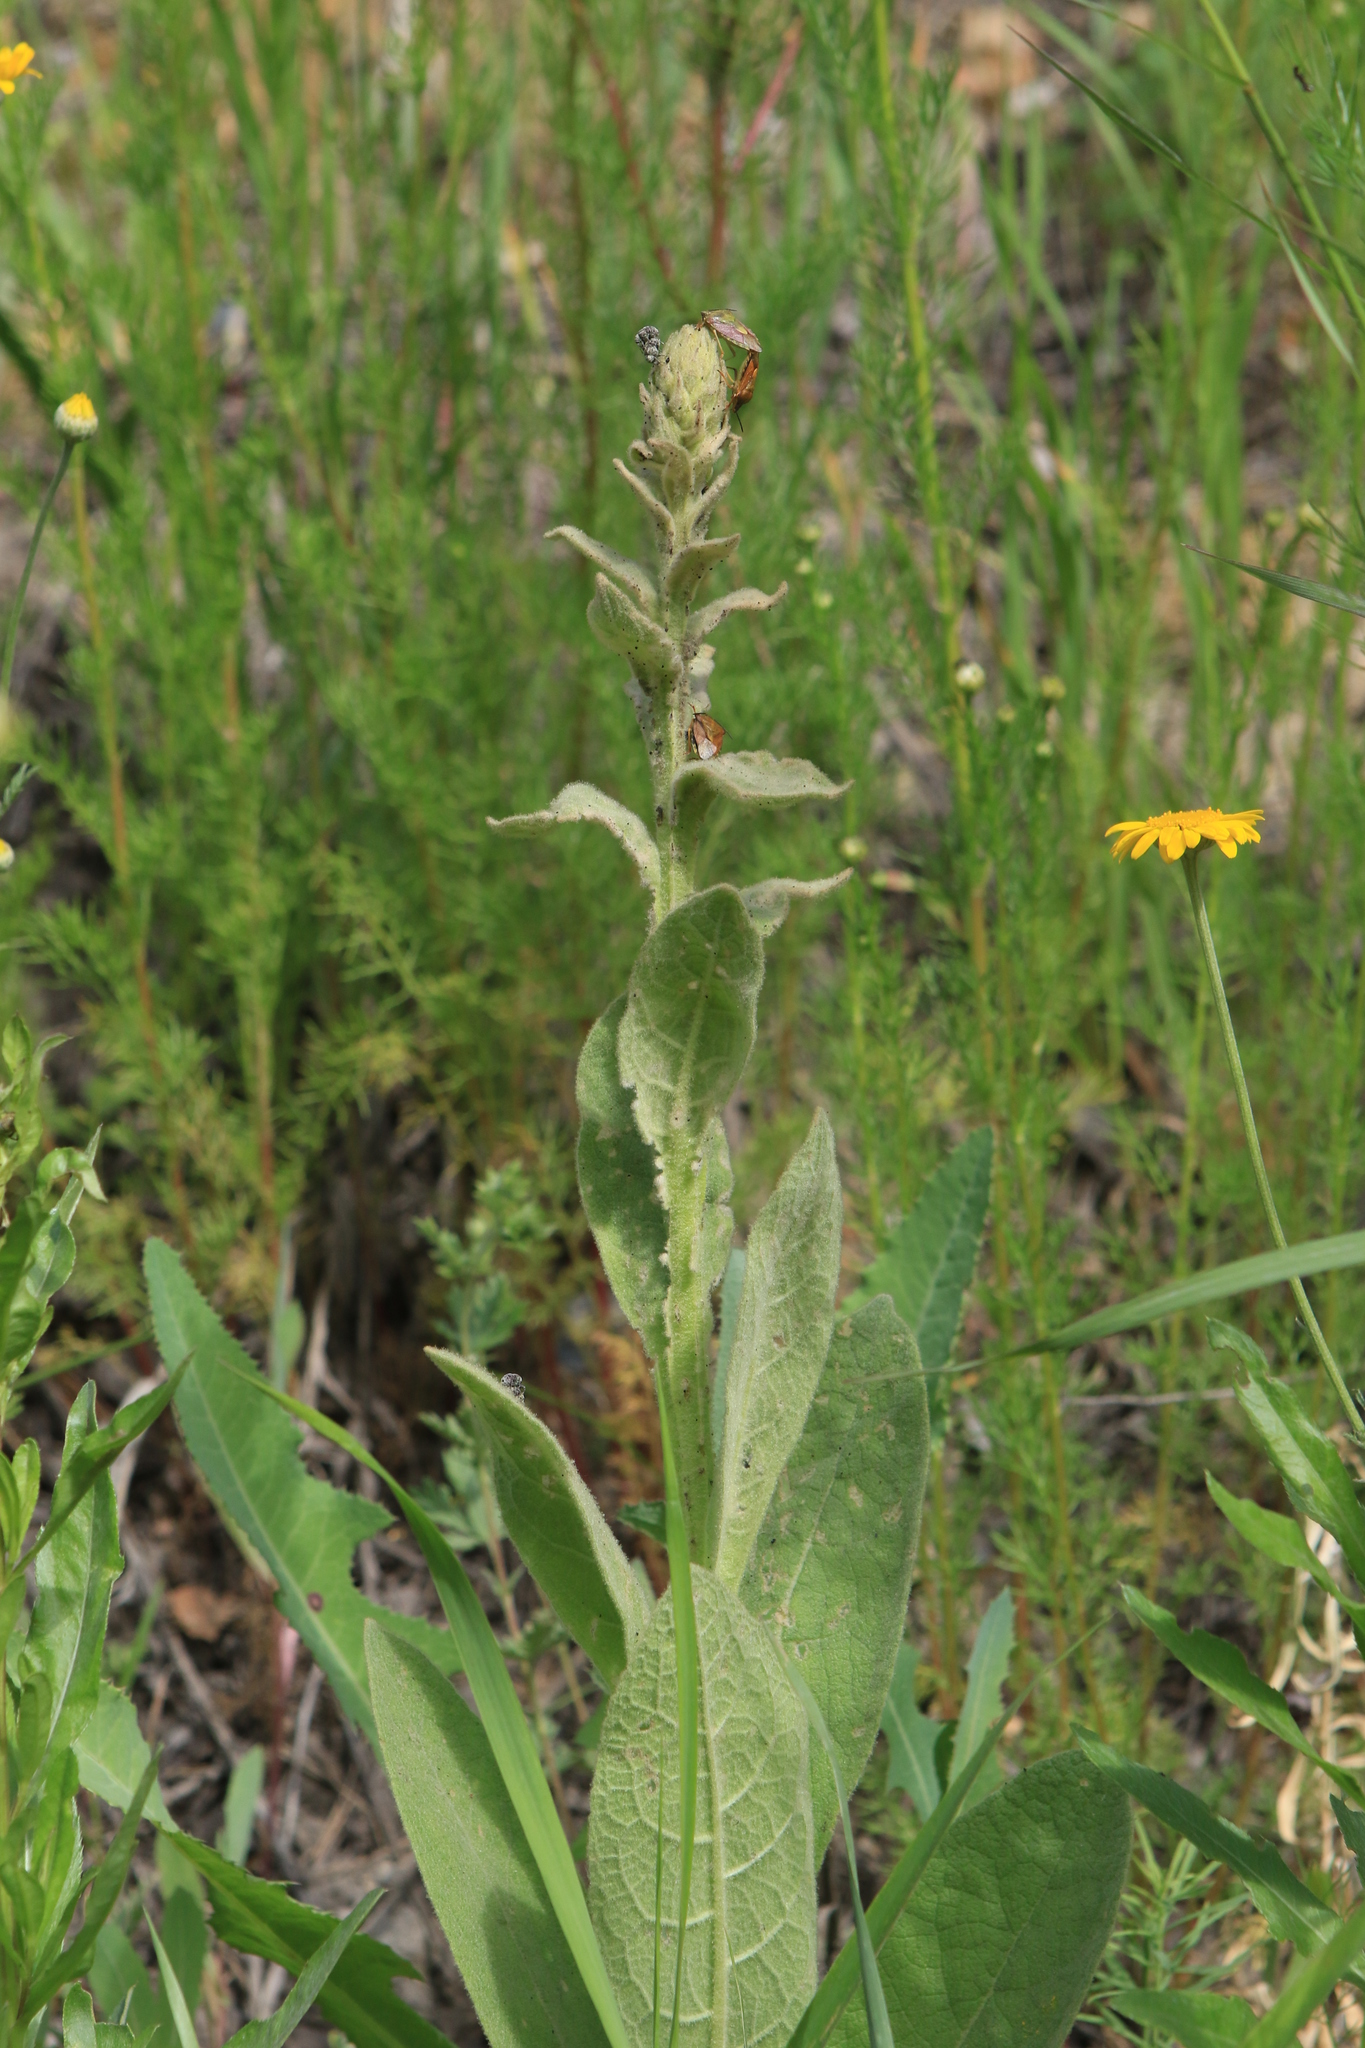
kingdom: Plantae
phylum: Tracheophyta
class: Magnoliopsida
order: Lamiales
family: Scrophulariaceae
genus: Verbascum
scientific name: Verbascum thapsus
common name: Common mullein
